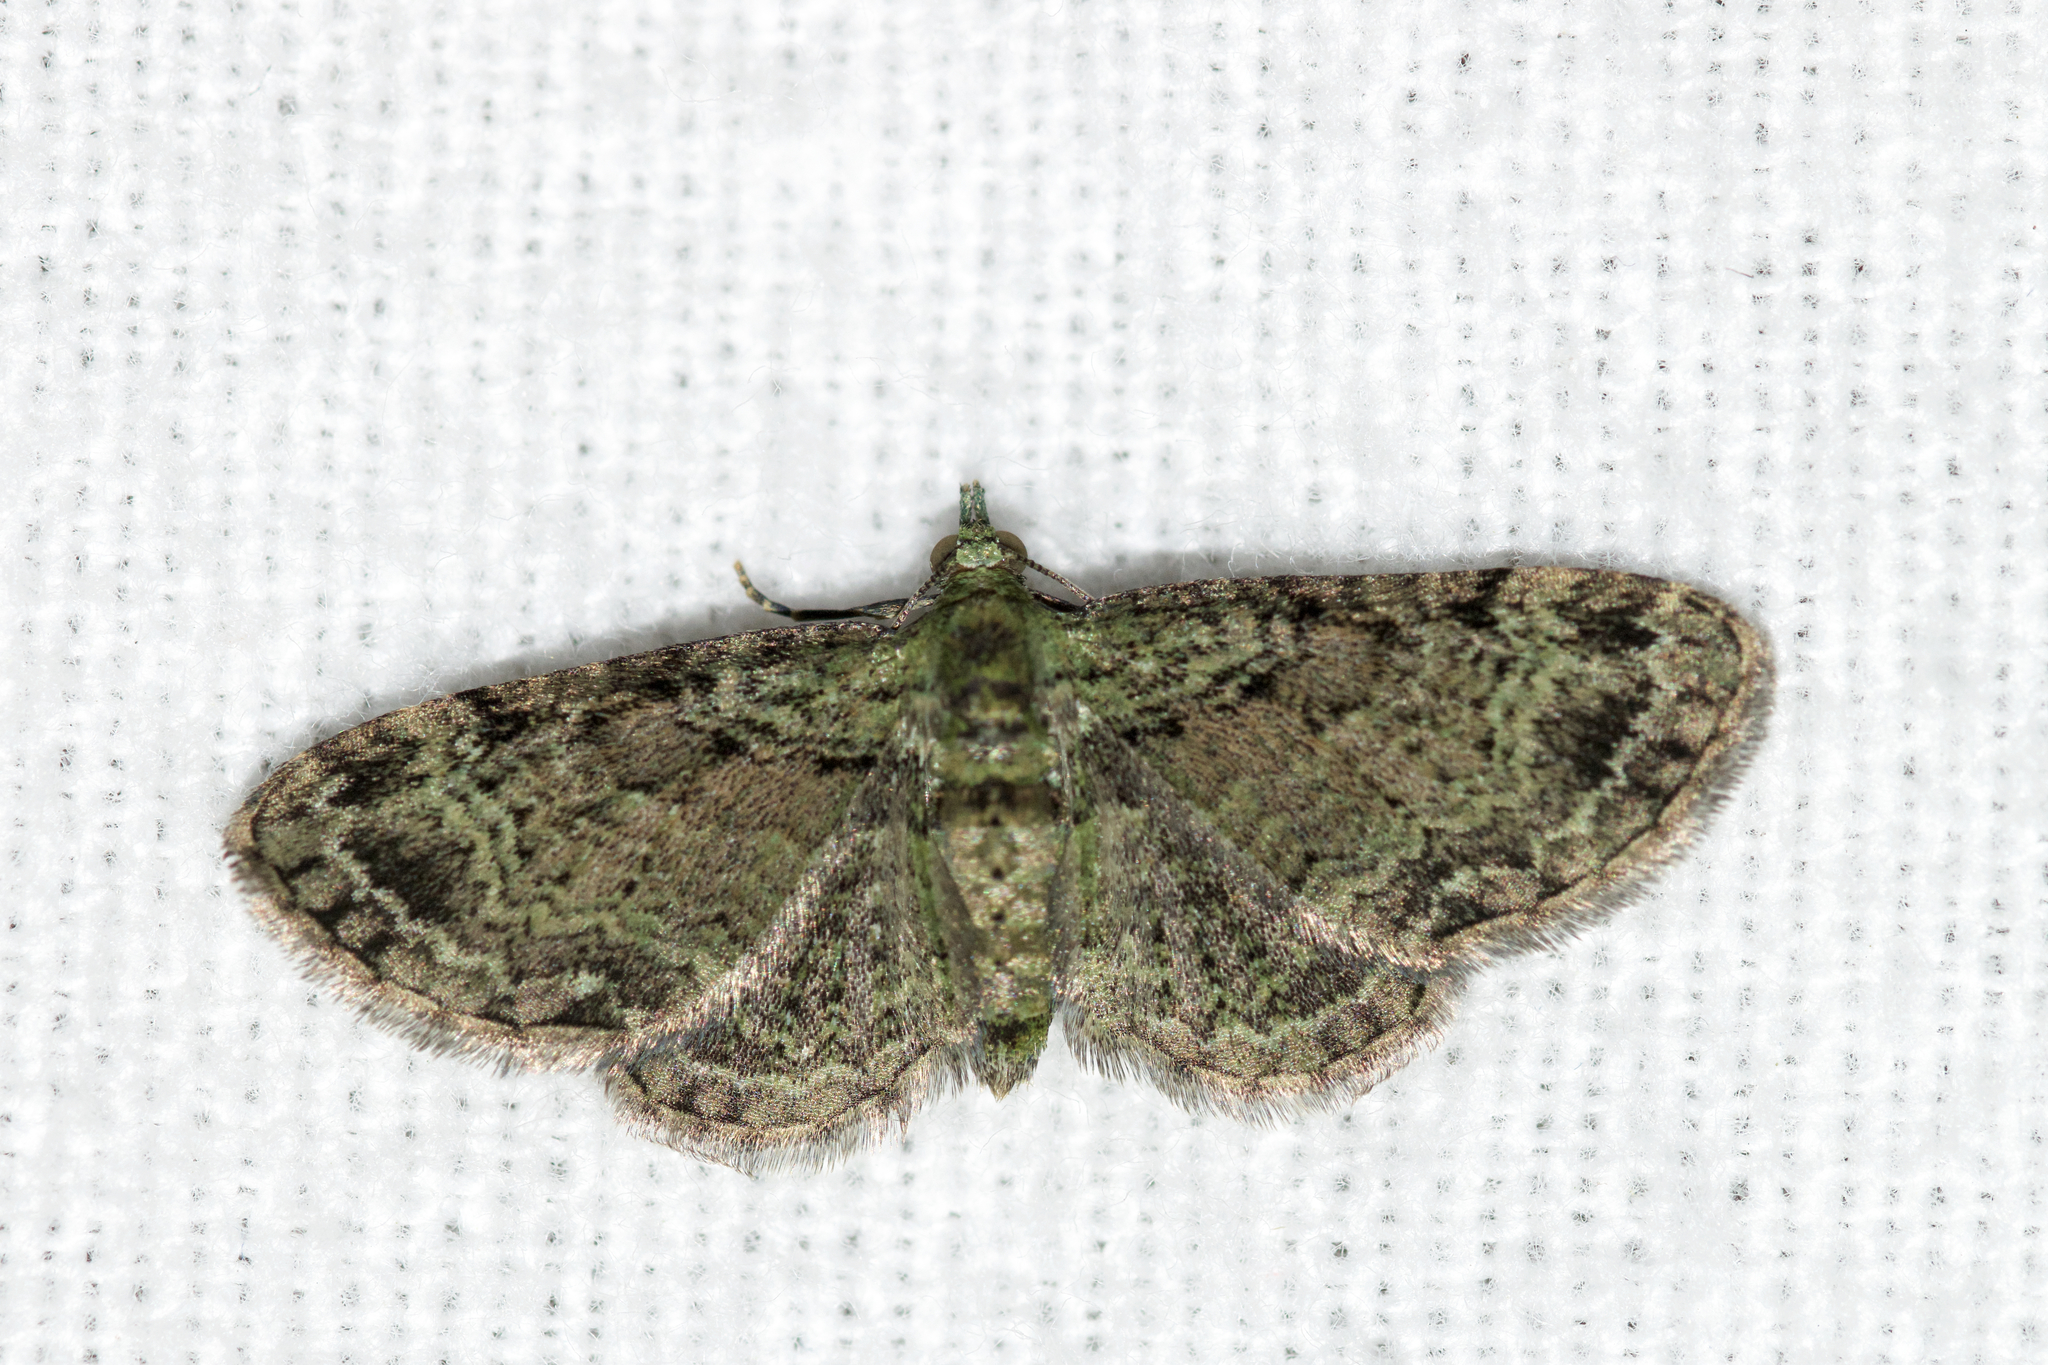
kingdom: Animalia
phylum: Arthropoda
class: Insecta
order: Lepidoptera
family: Geometridae
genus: Pasiphila
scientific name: Pasiphila rectangulata
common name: Green pug
